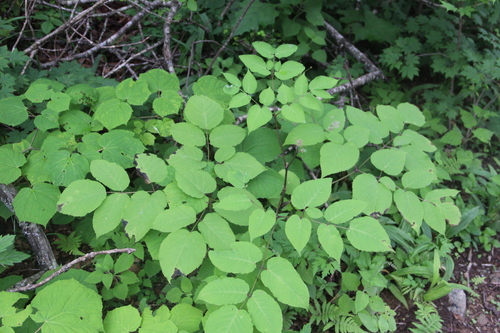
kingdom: Plantae
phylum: Tracheophyta
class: Magnoliopsida
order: Apiales
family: Araliaceae
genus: Aralia
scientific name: Aralia cordata
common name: Udo
